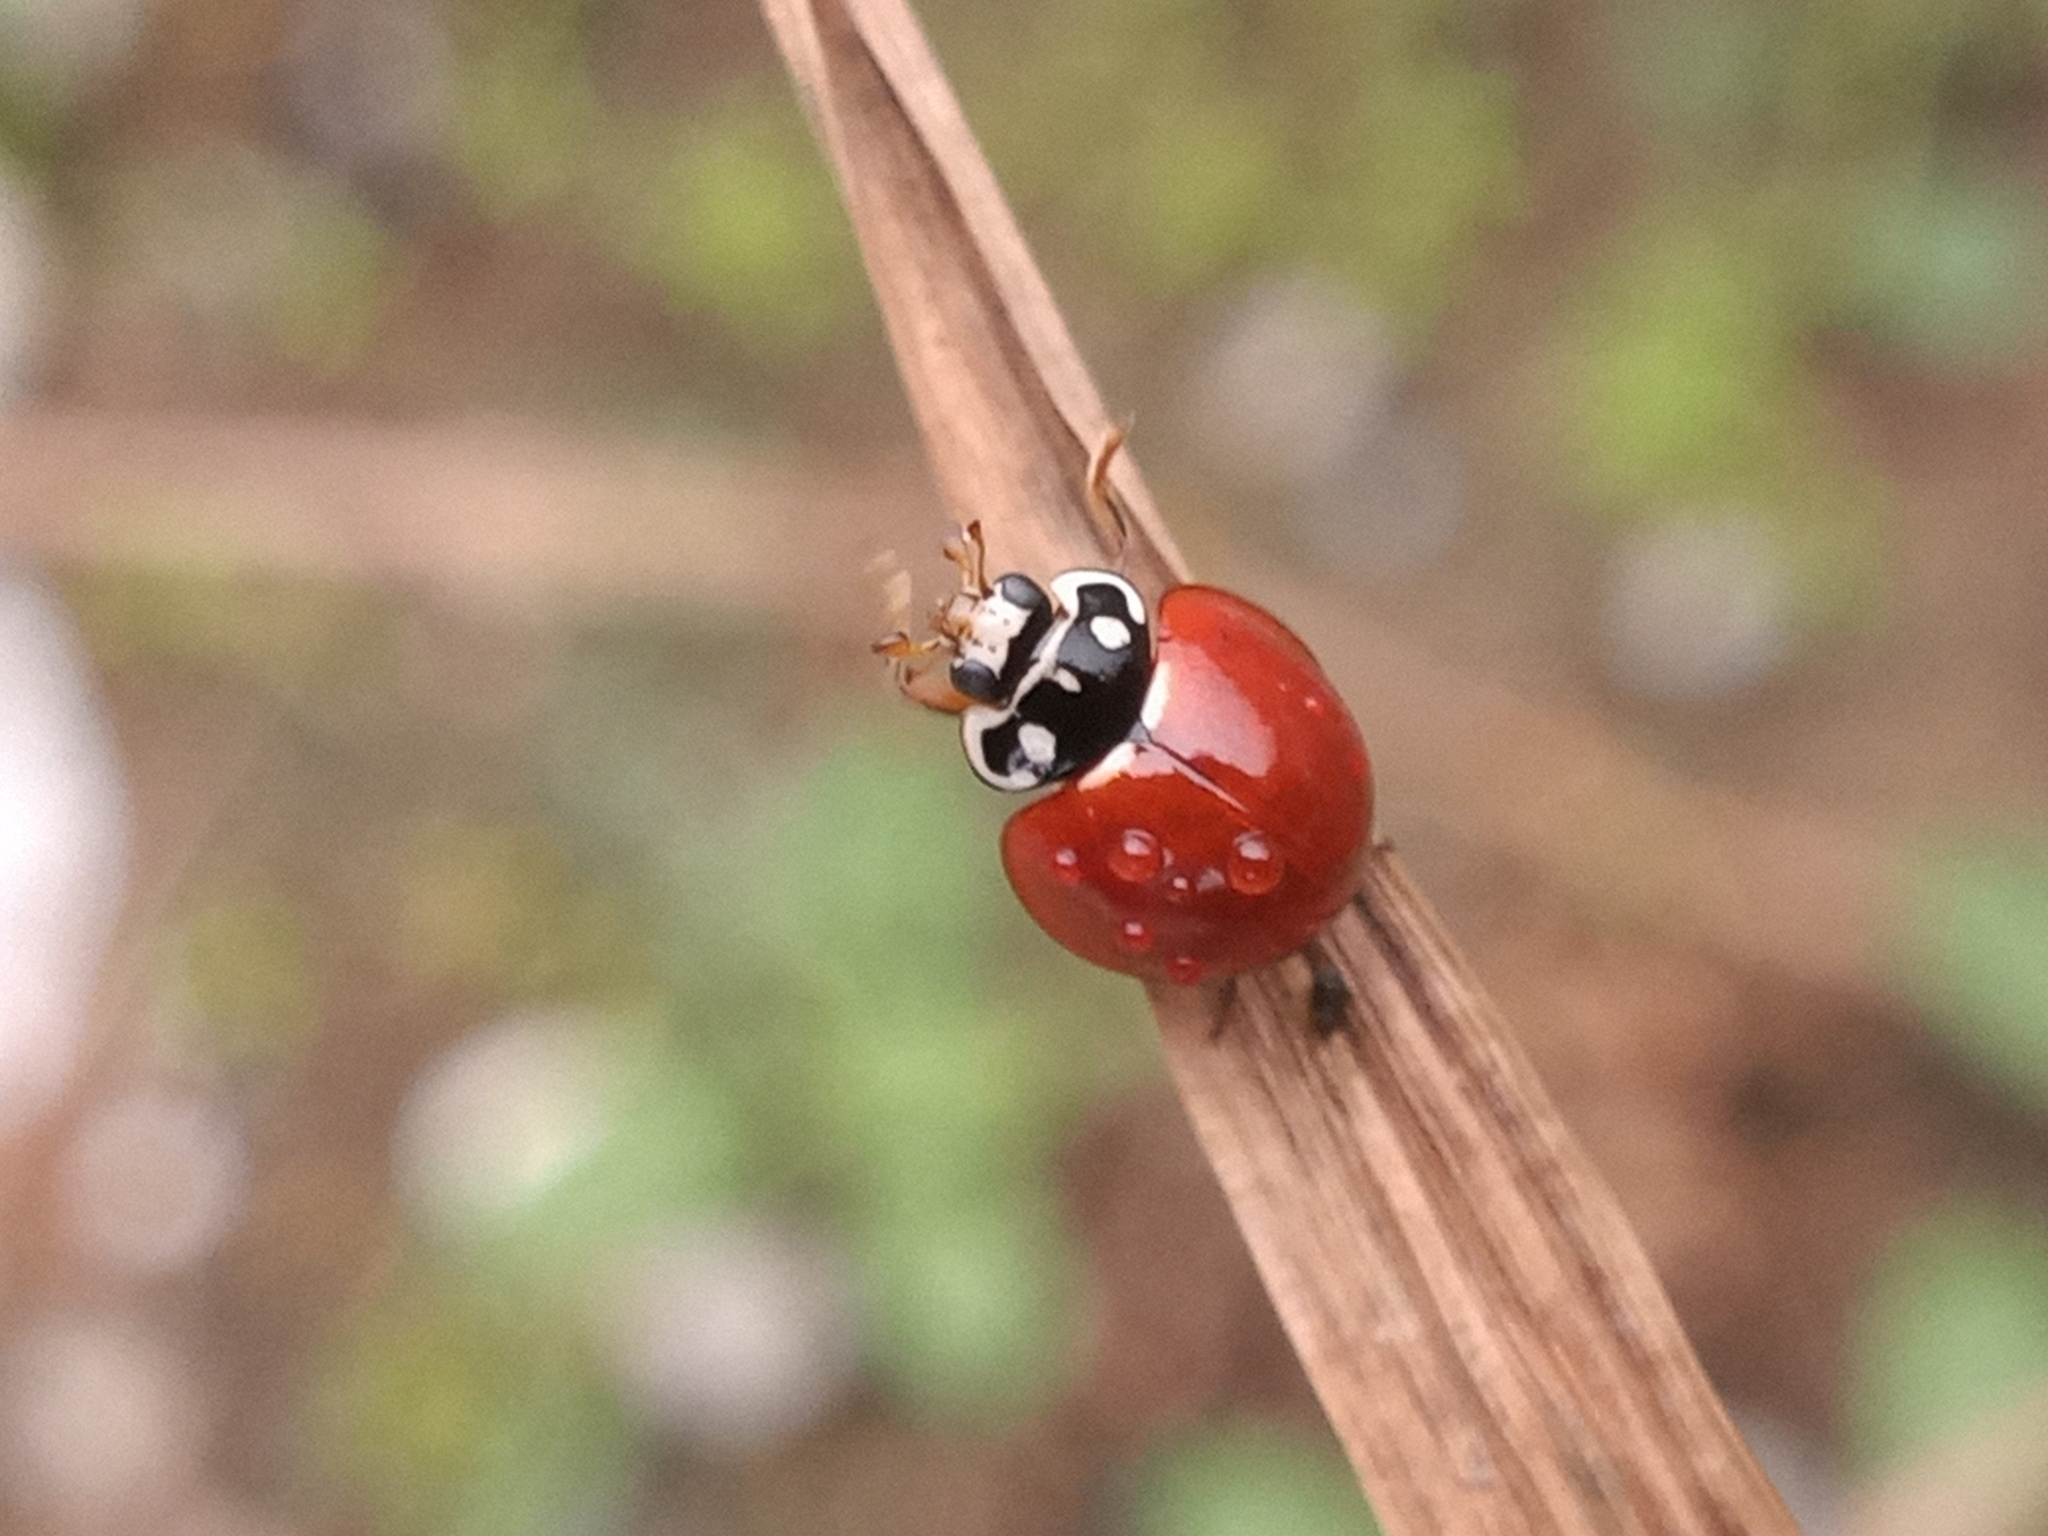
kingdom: Animalia
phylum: Arthropoda
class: Insecta
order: Coleoptera
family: Coccinellidae
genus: Cycloneda
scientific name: Cycloneda sanguinea
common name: Ladybird beetle
